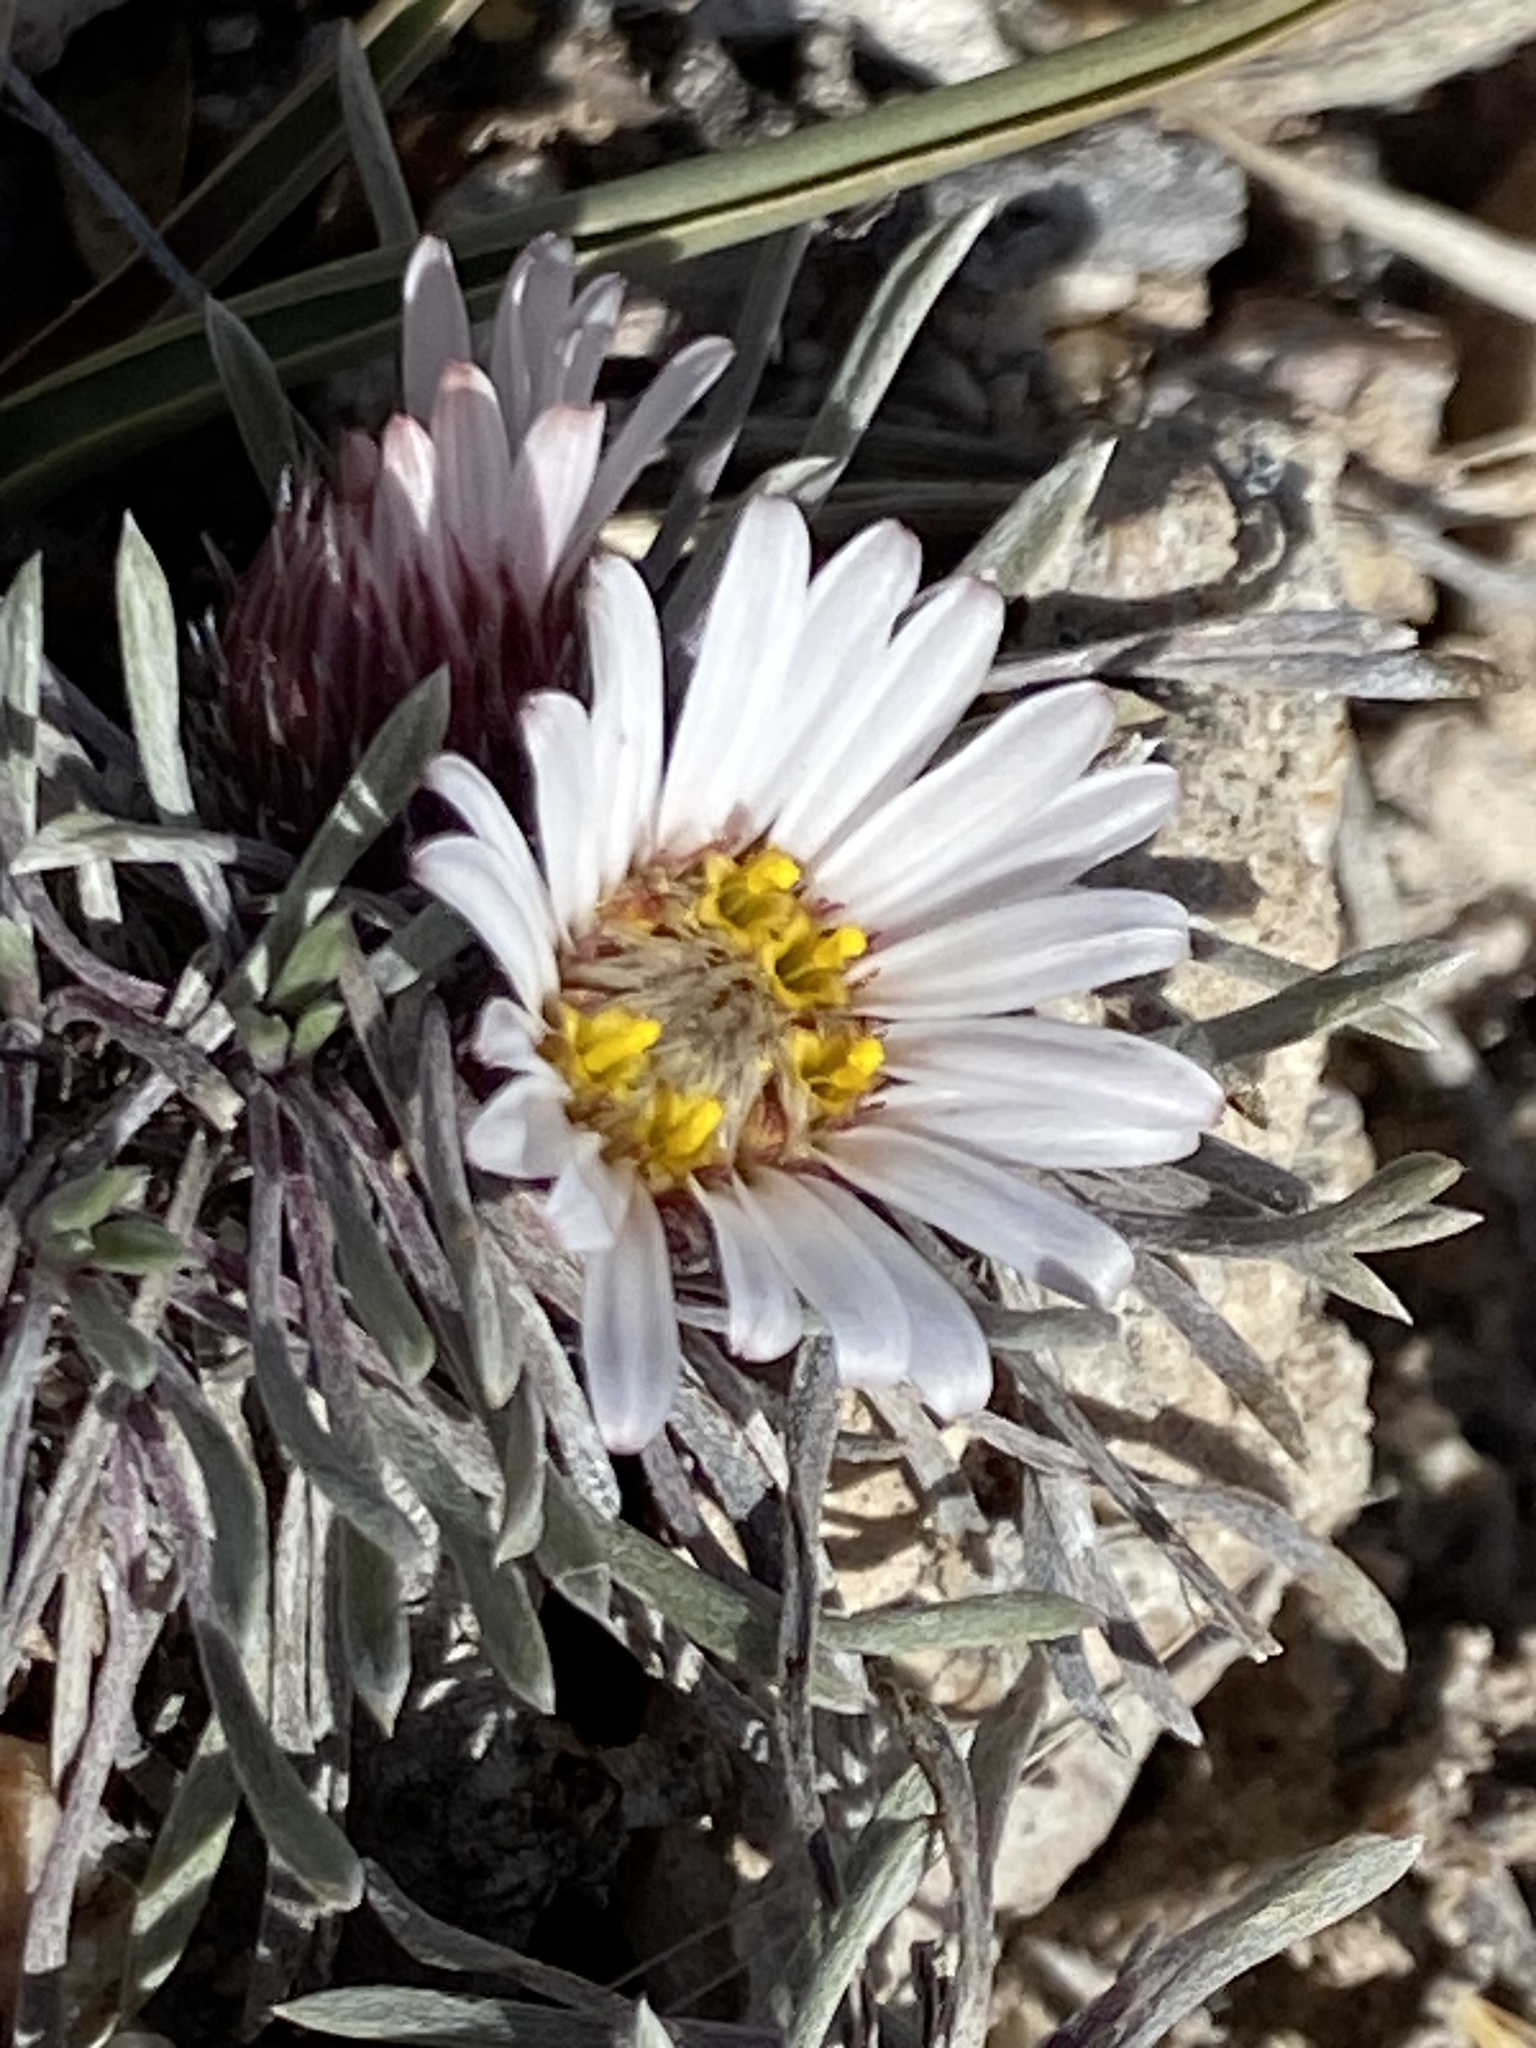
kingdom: Plantae
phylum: Tracheophyta
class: Magnoliopsida
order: Asterales
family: Asteraceae
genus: Townsendia
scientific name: Townsendia hookeri
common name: Hooker's townsend daisy
